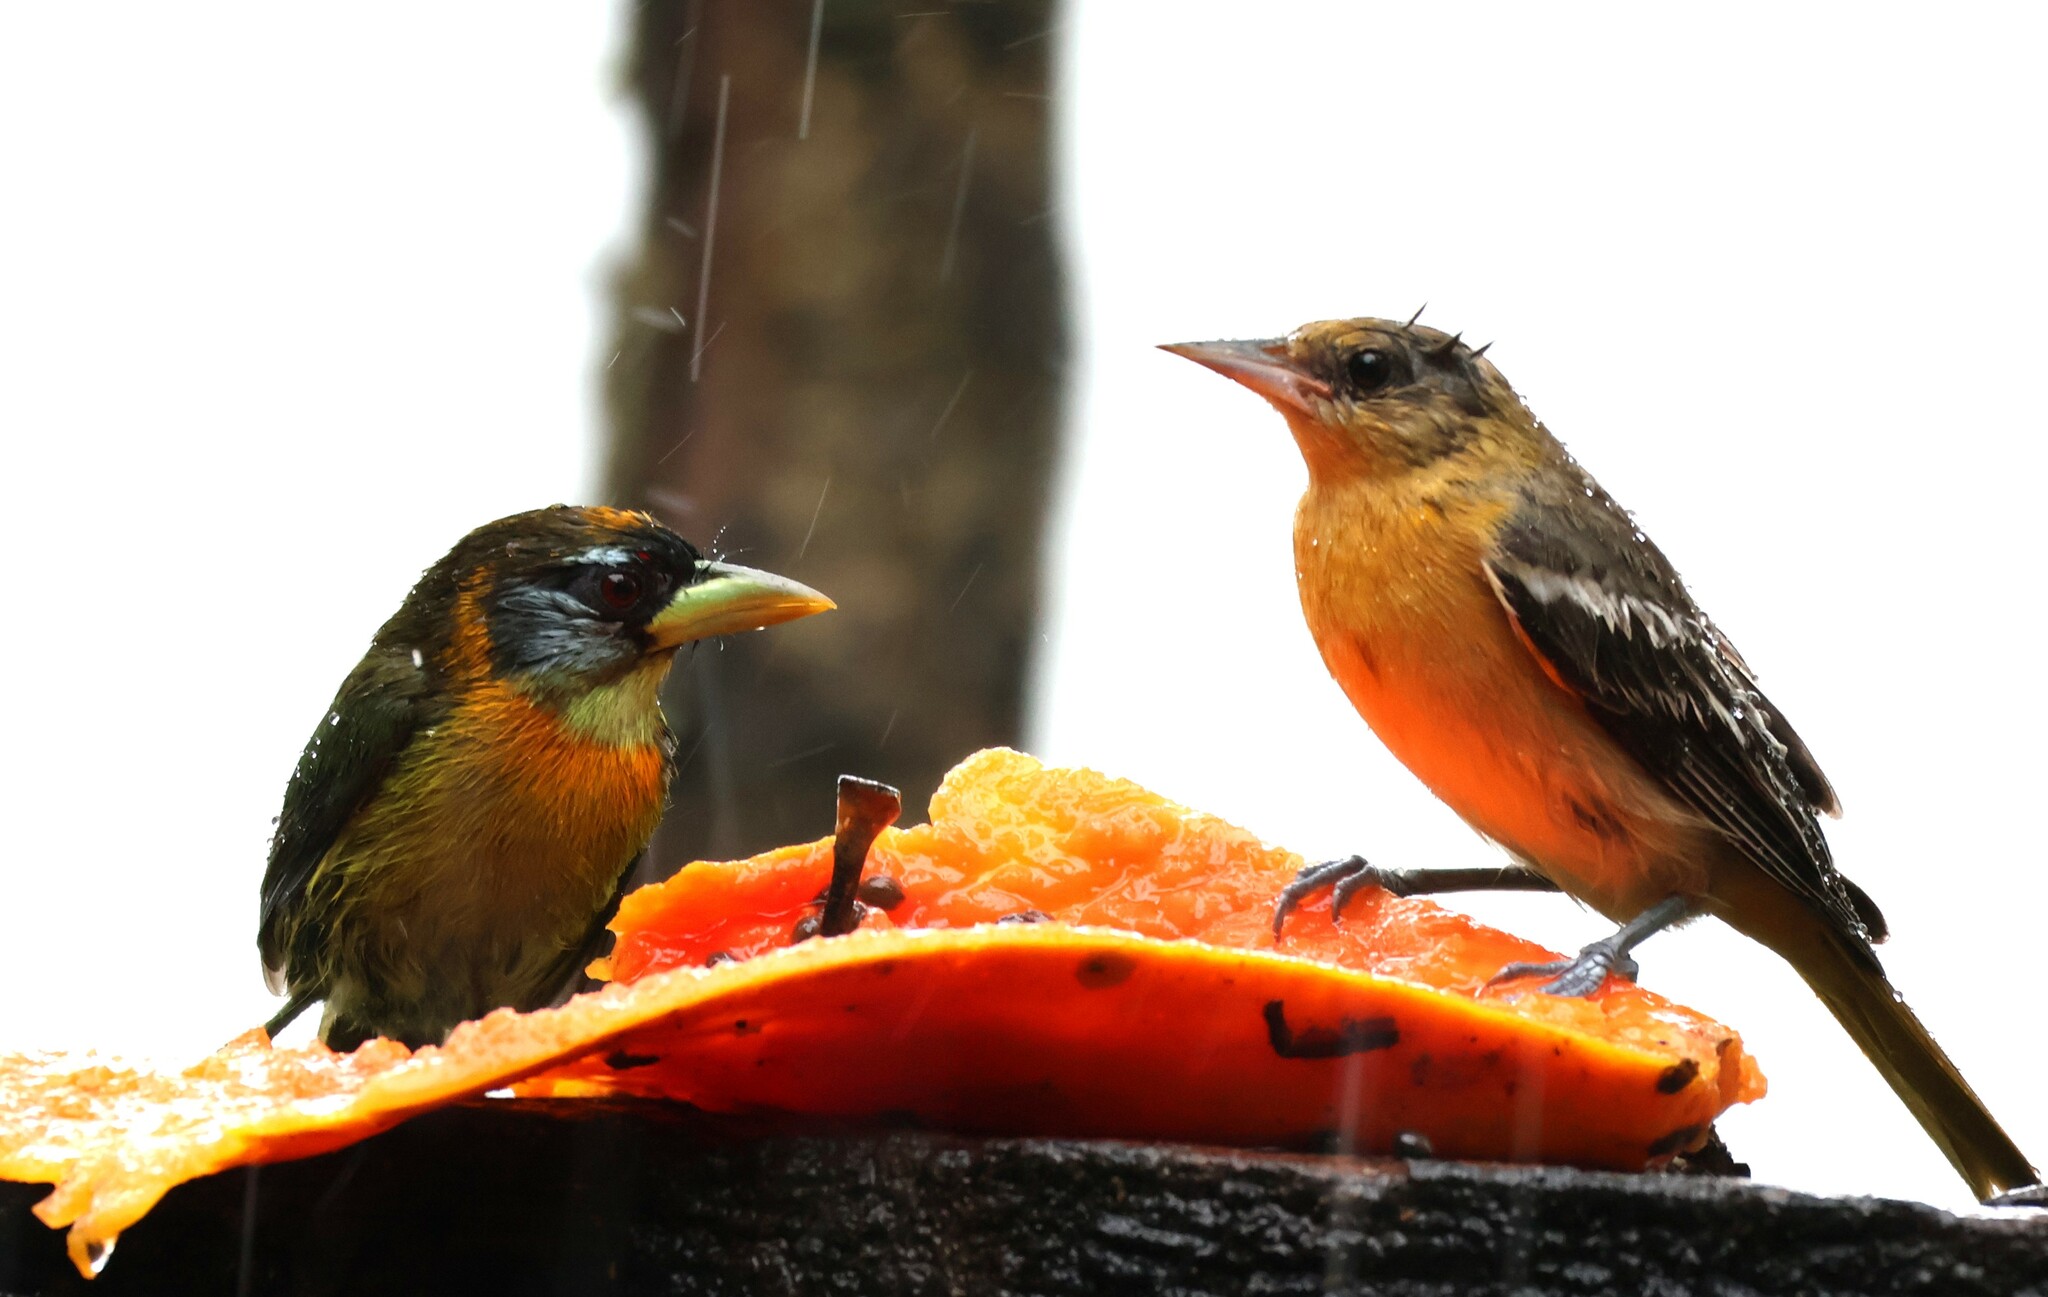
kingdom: Animalia
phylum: Chordata
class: Aves
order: Piciformes
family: Capitonidae
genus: Eubucco
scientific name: Eubucco bourcierii
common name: Red-headed barbet
